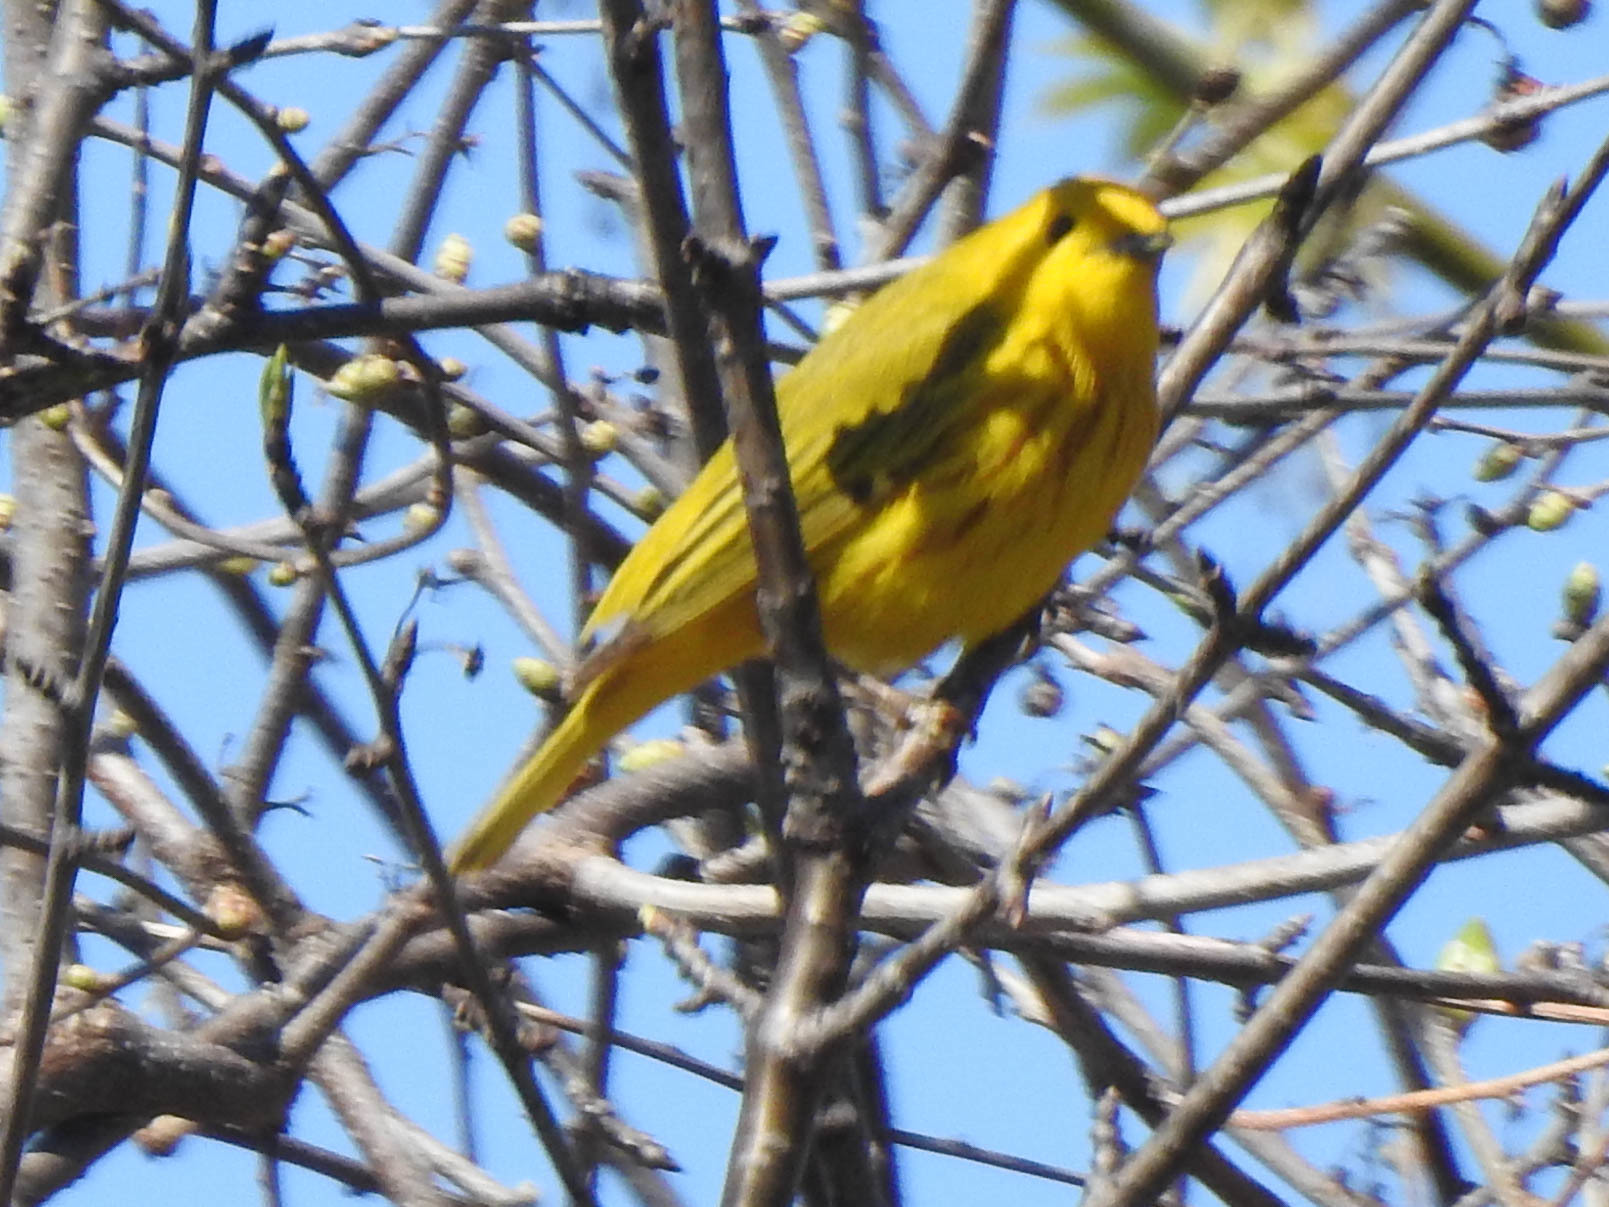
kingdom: Animalia
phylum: Chordata
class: Aves
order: Passeriformes
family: Parulidae
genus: Setophaga
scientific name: Setophaga petechia
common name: Yellow warbler
